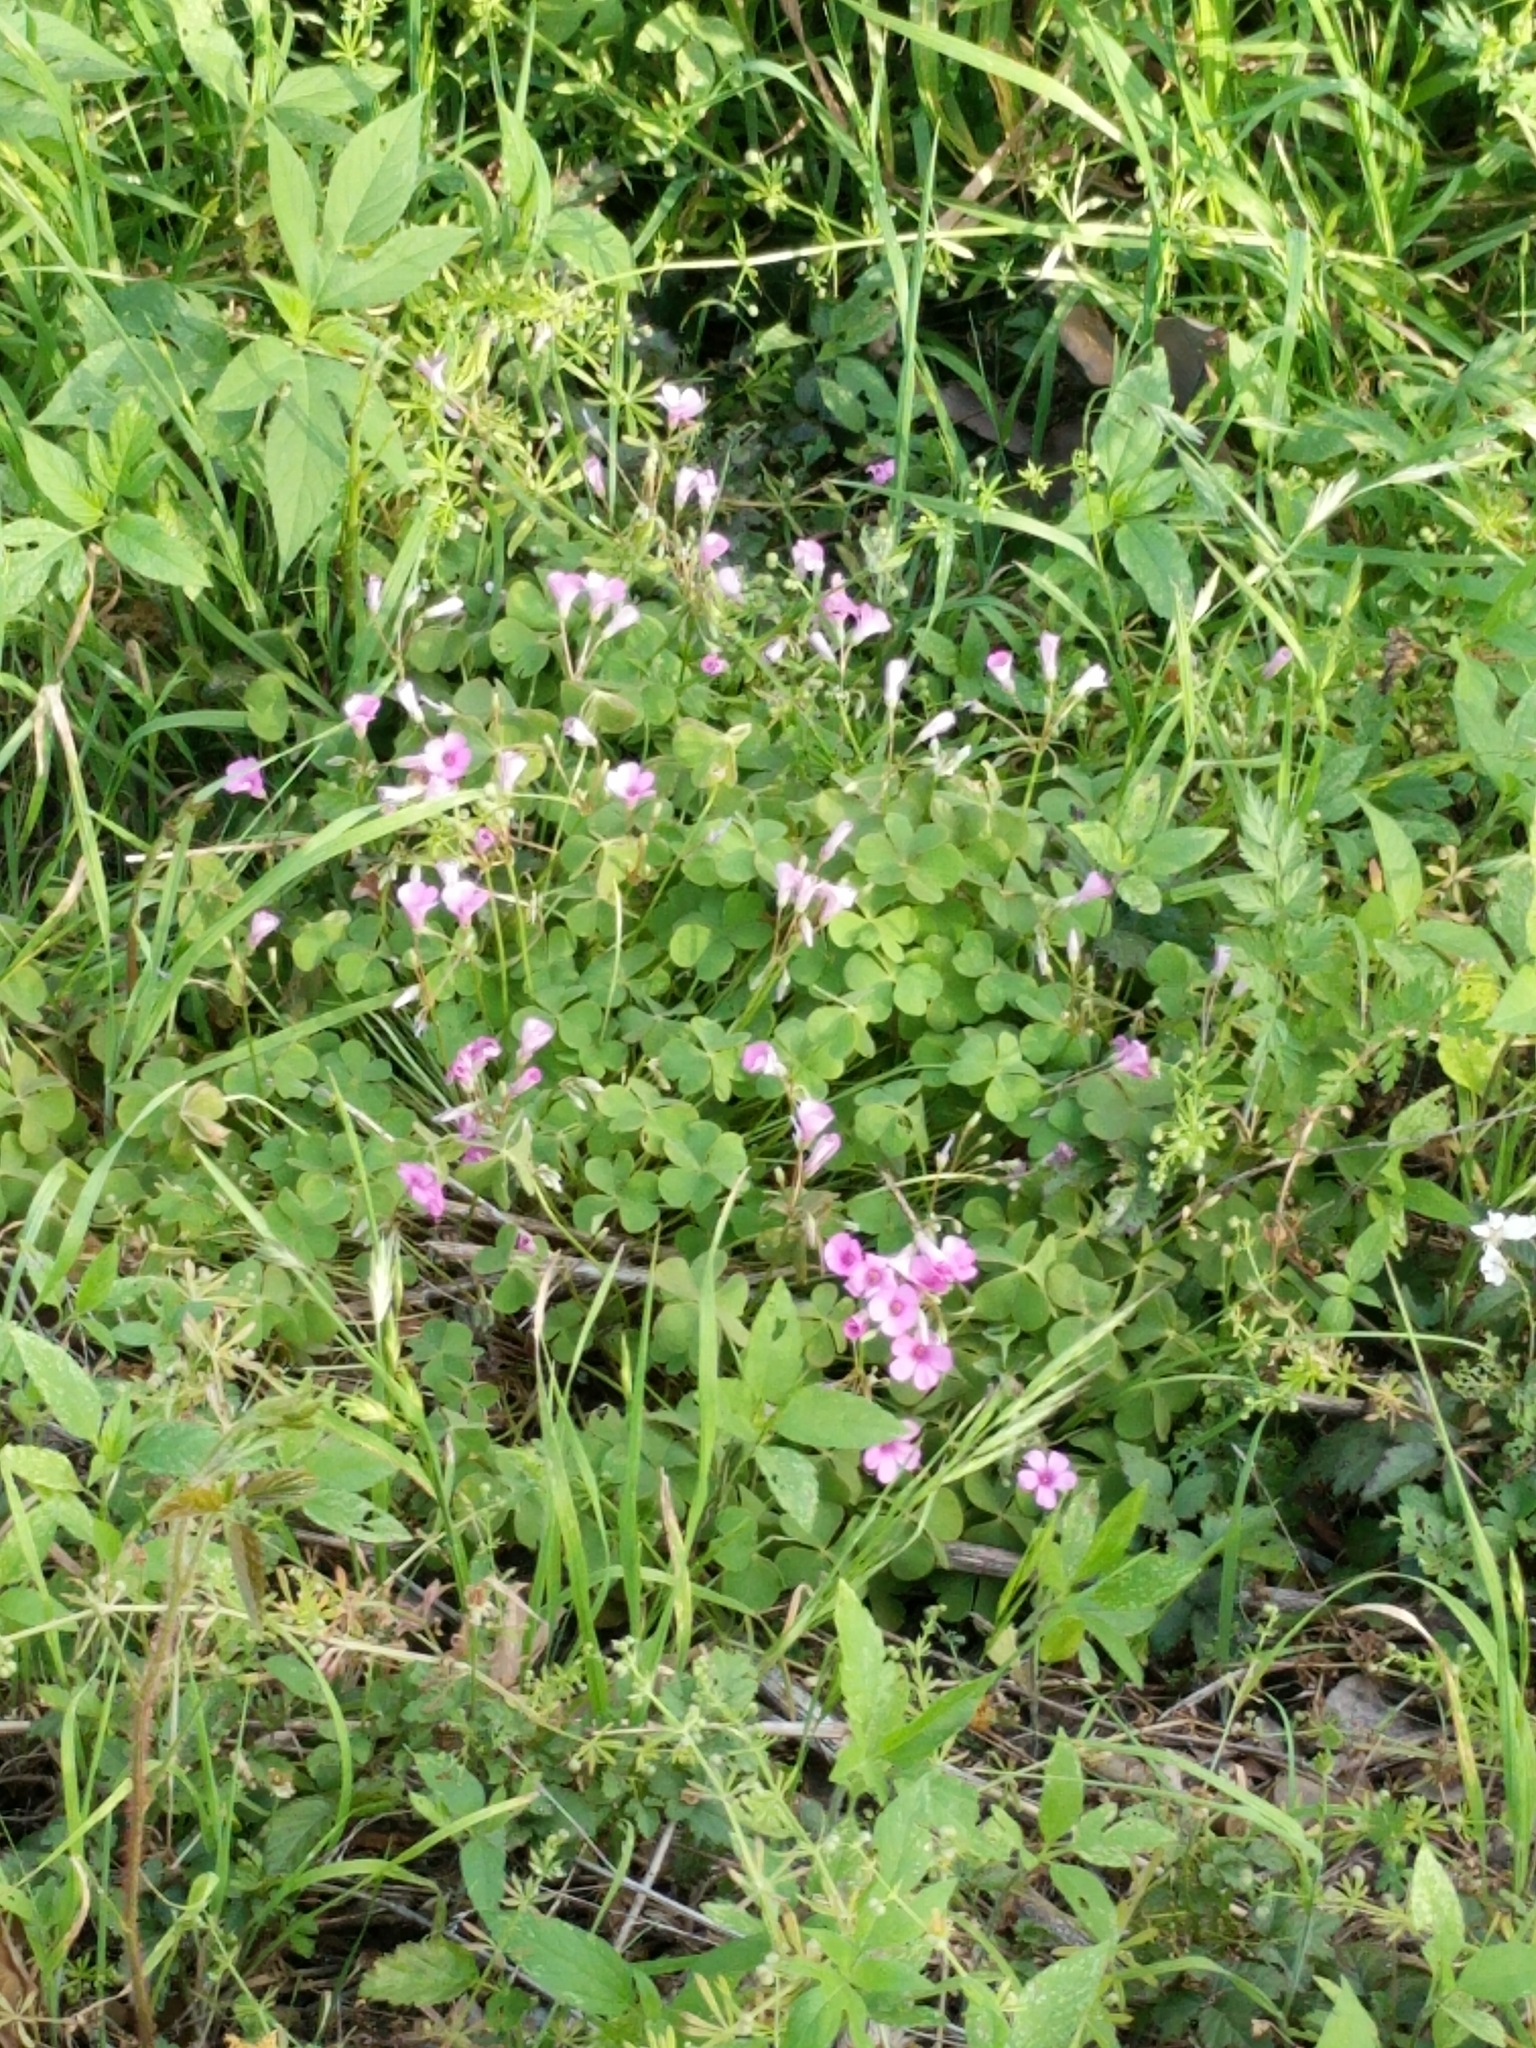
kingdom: Plantae
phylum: Tracheophyta
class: Magnoliopsida
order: Oxalidales
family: Oxalidaceae
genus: Oxalis
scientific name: Oxalis articulata
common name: Pink-sorrel
